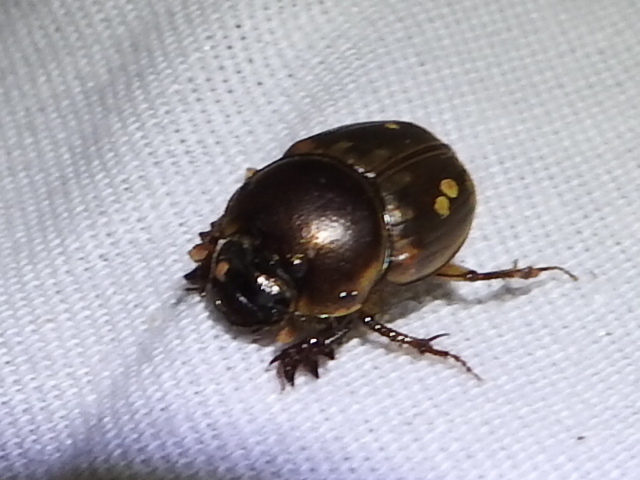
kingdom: Animalia
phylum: Arthropoda
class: Insecta
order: Coleoptera
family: Scarabaeidae
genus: Digitonthophagus
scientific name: Digitonthophagus gazella
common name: Brown dung beetle
